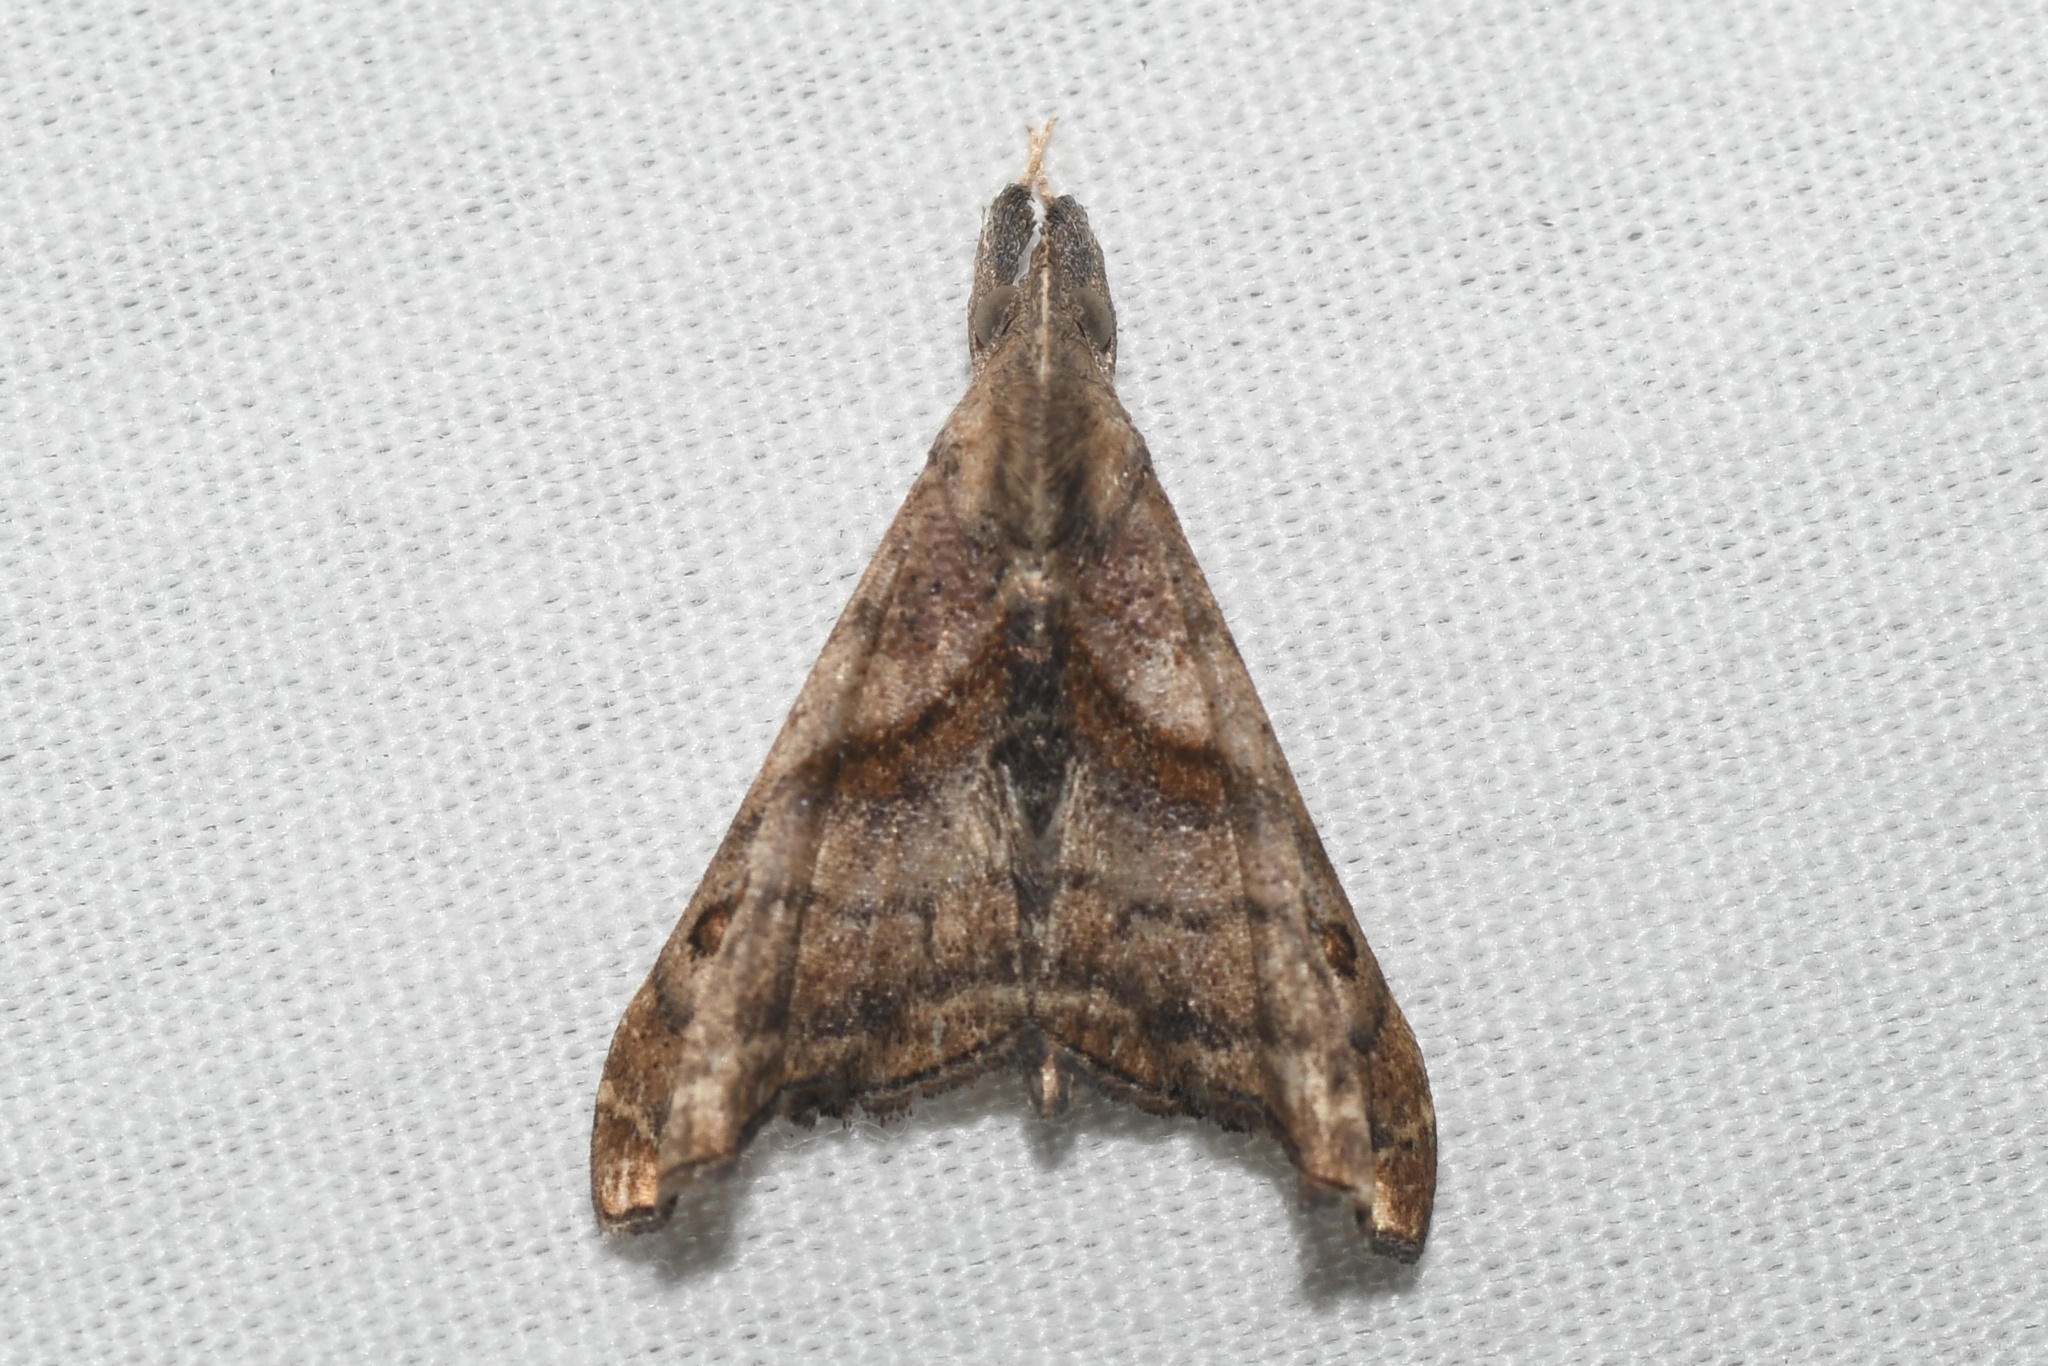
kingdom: Animalia
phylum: Arthropoda
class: Insecta
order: Lepidoptera
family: Erebidae
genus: Palthis
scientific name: Palthis angulalis
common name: Dark-spotted palthis moth
